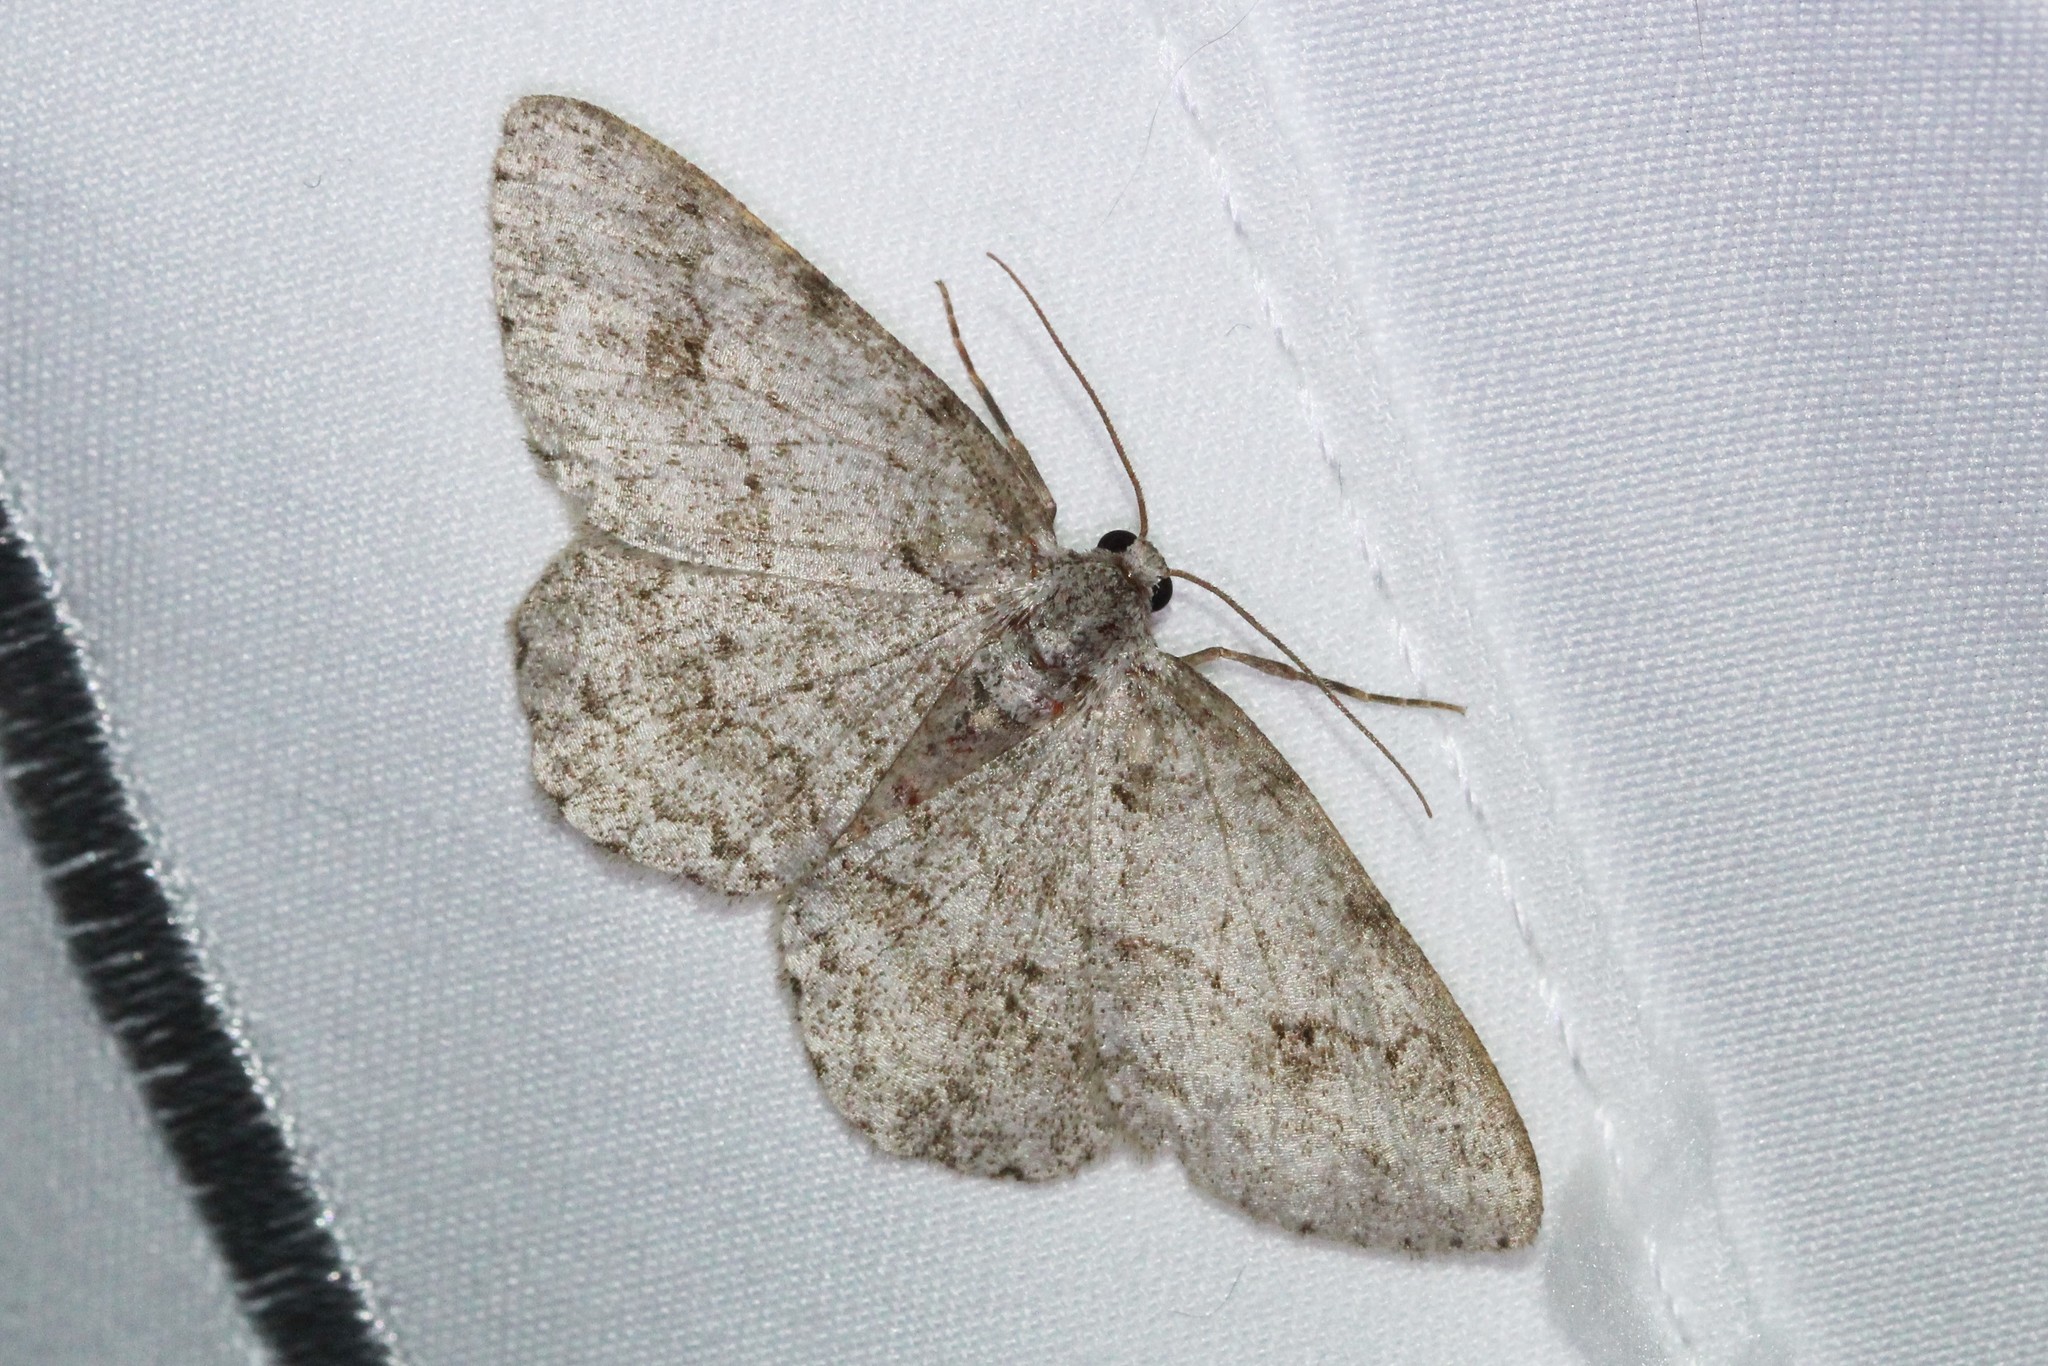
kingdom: Animalia
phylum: Arthropoda
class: Insecta
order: Lepidoptera
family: Geometridae
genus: Ectropis
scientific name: Ectropis crepuscularia
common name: Engrailed
